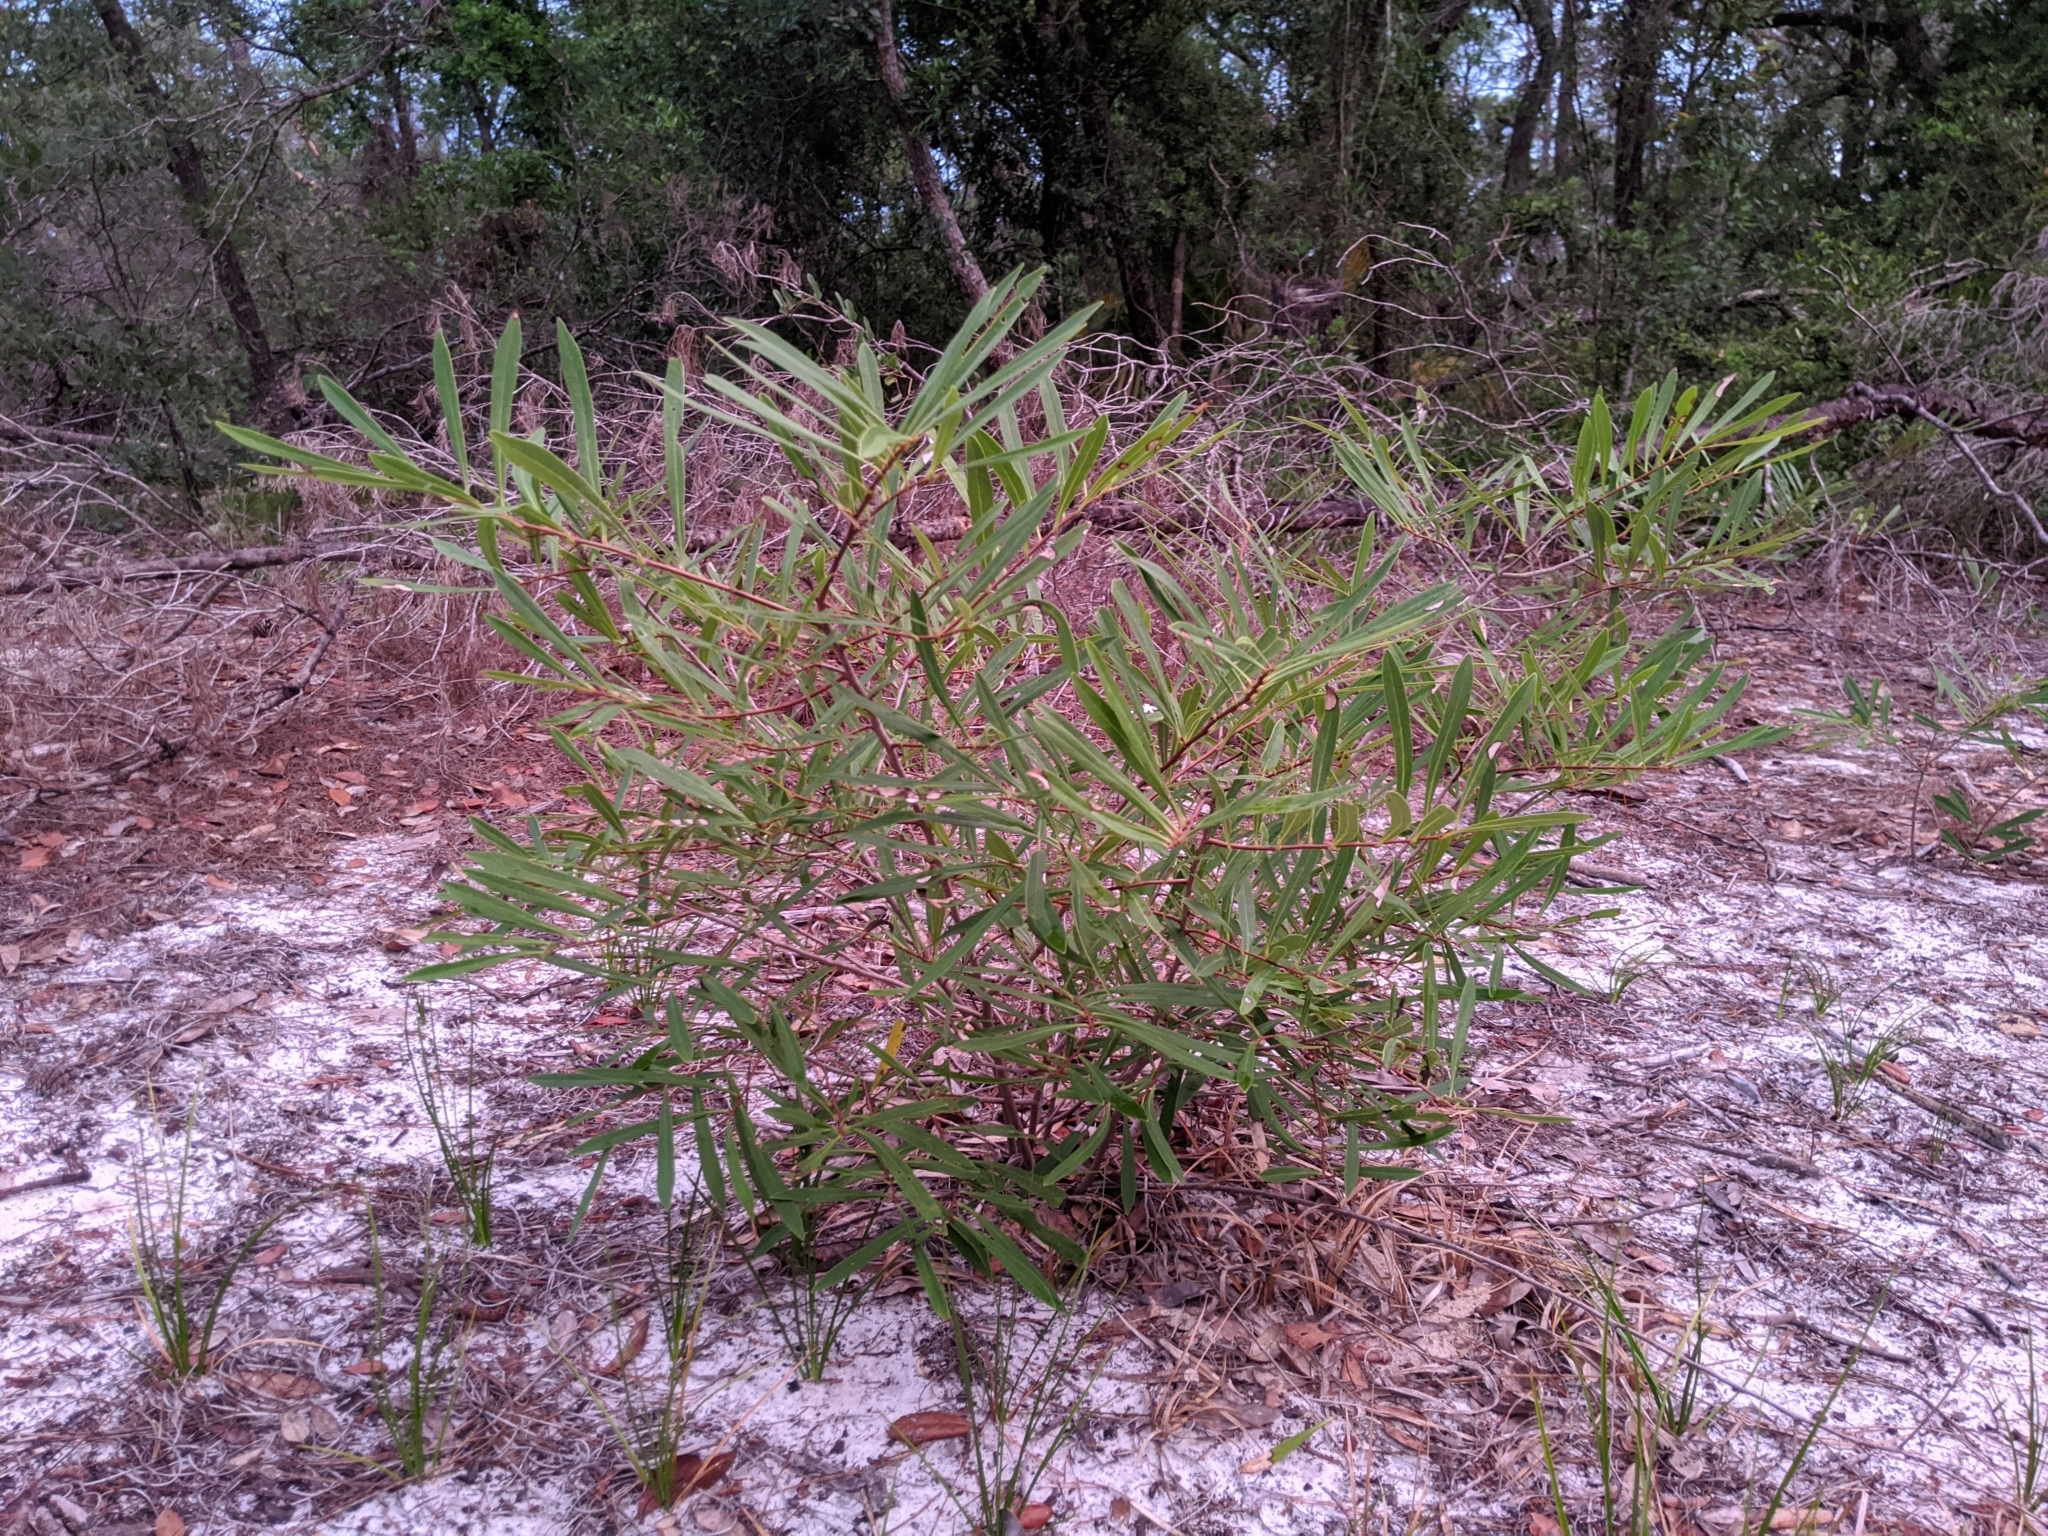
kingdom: Plantae
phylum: Tracheophyta
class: Magnoliopsida
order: Magnoliales
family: Annonaceae
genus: Asimina
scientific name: Asimina longifolia
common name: Polecatbush
